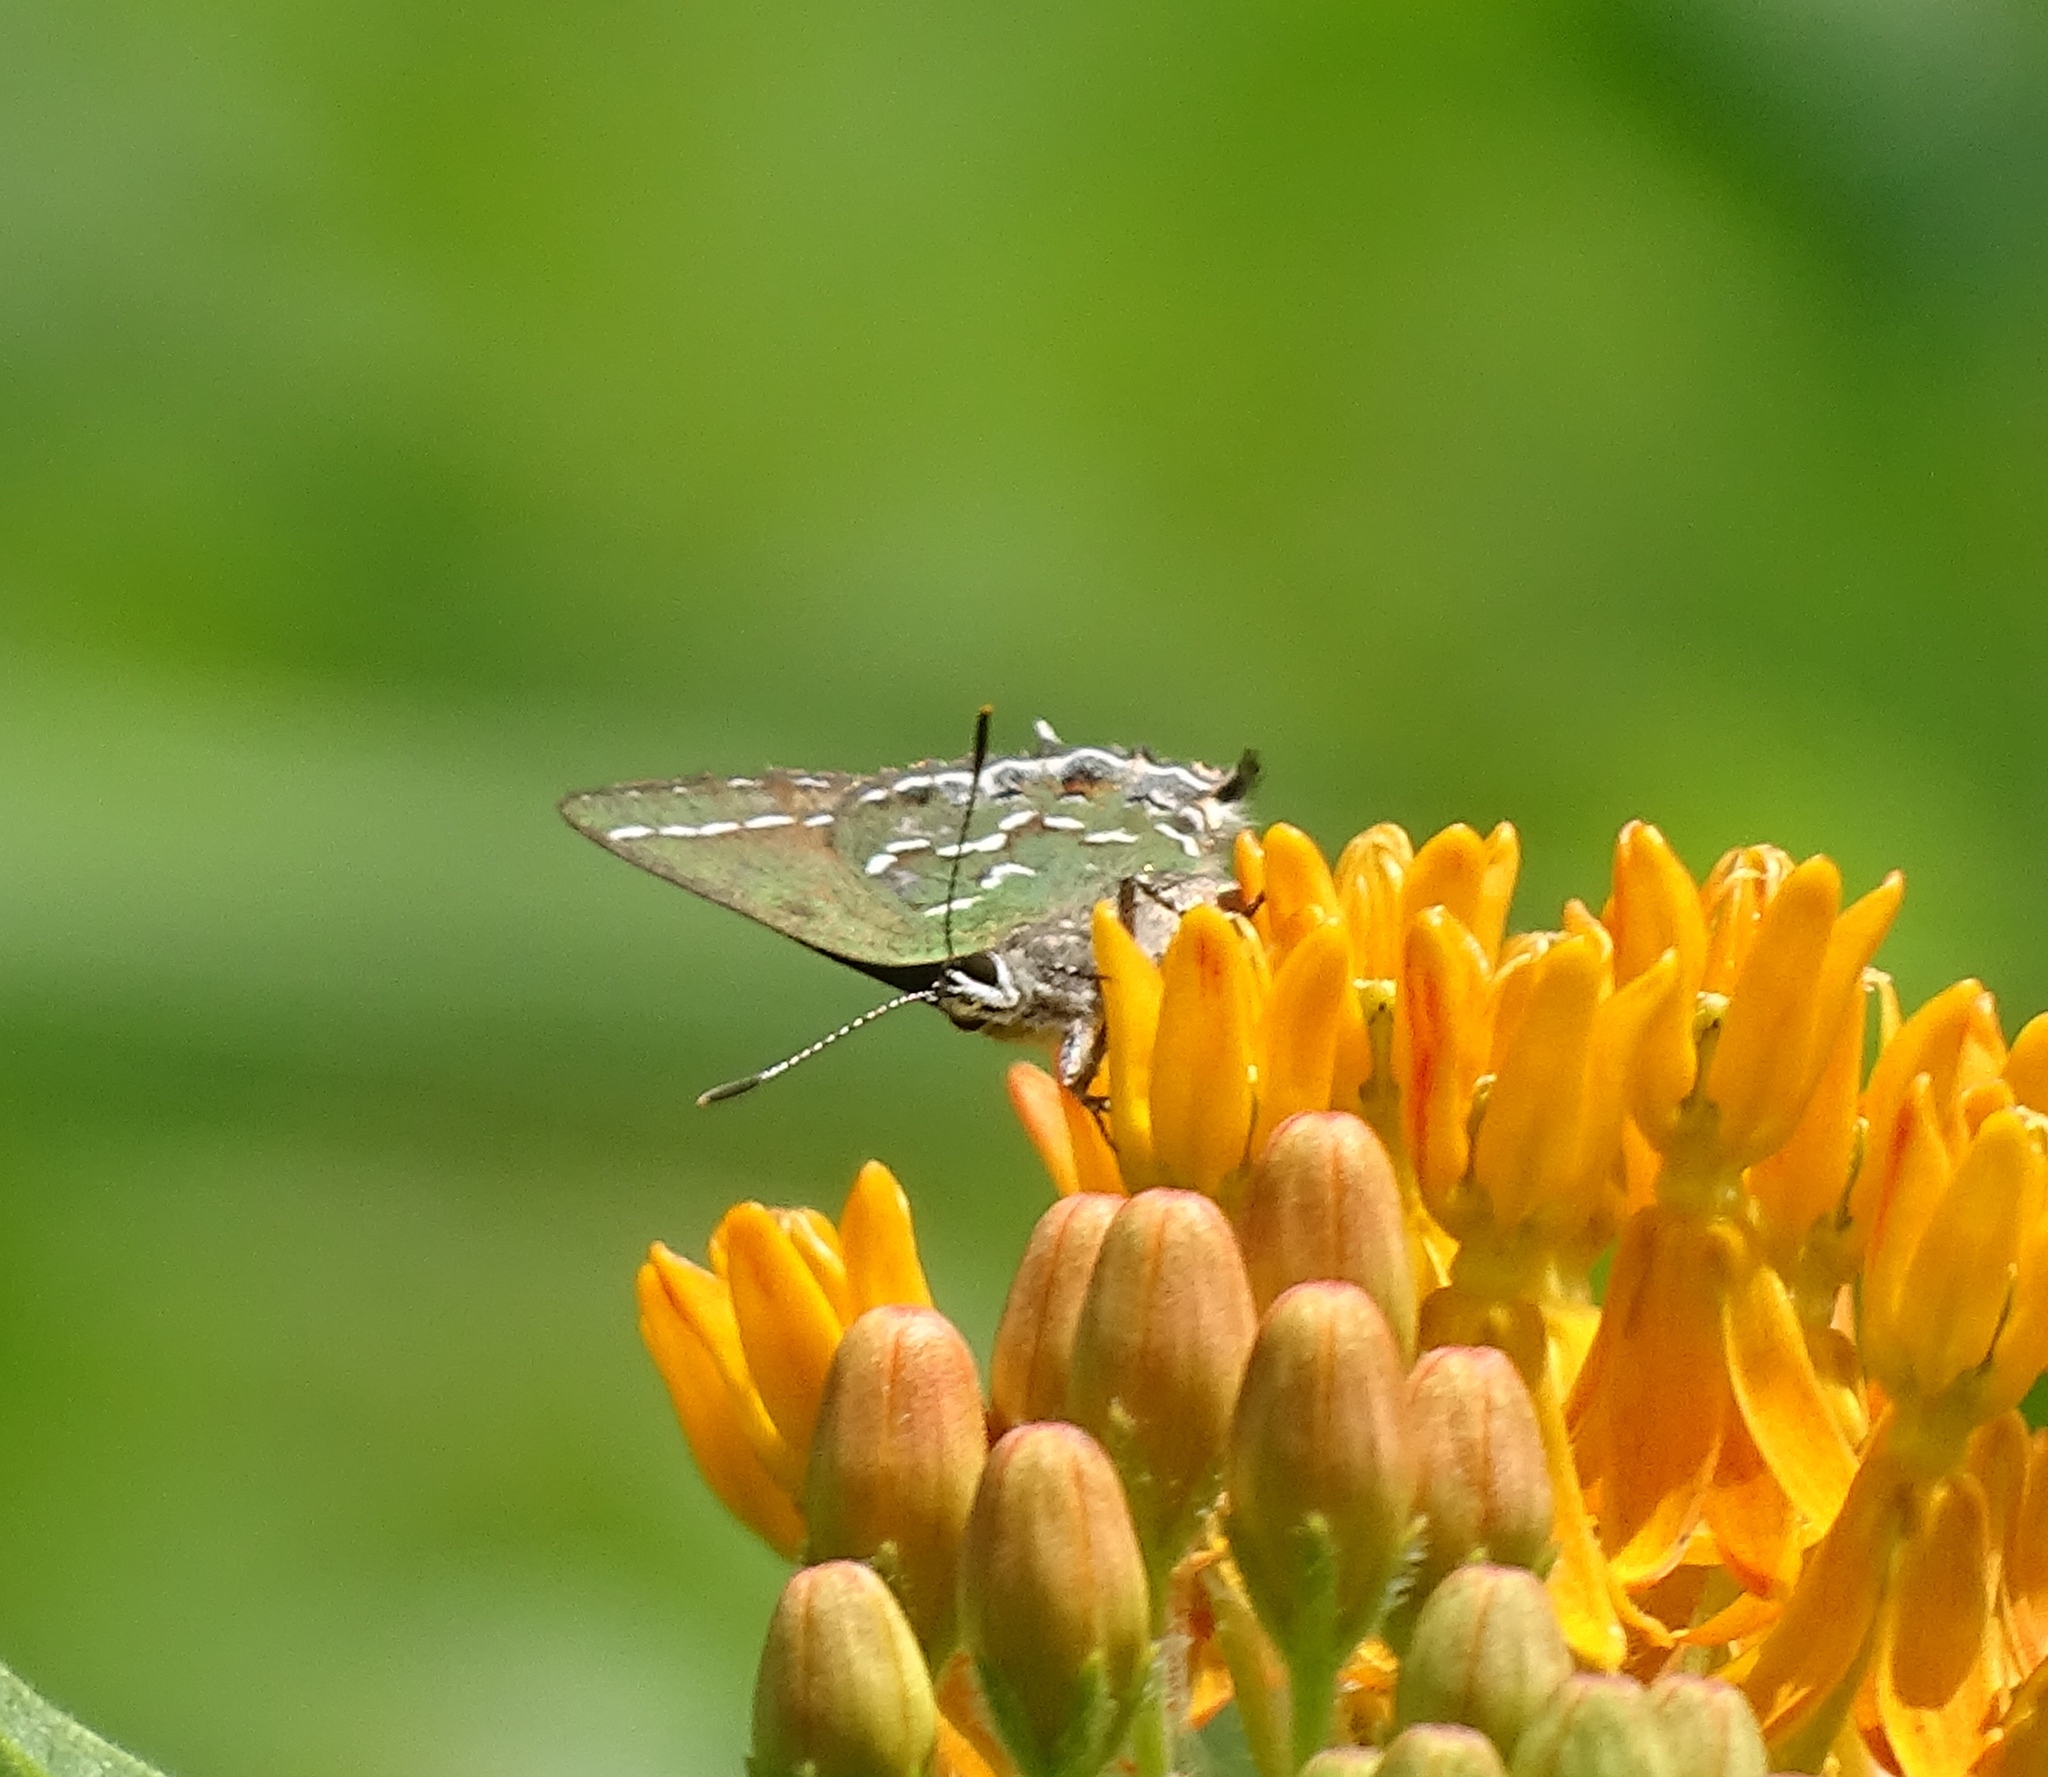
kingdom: Animalia
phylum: Arthropoda
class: Insecta
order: Lepidoptera
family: Lycaenidae
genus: Mitoura
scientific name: Mitoura gryneus
